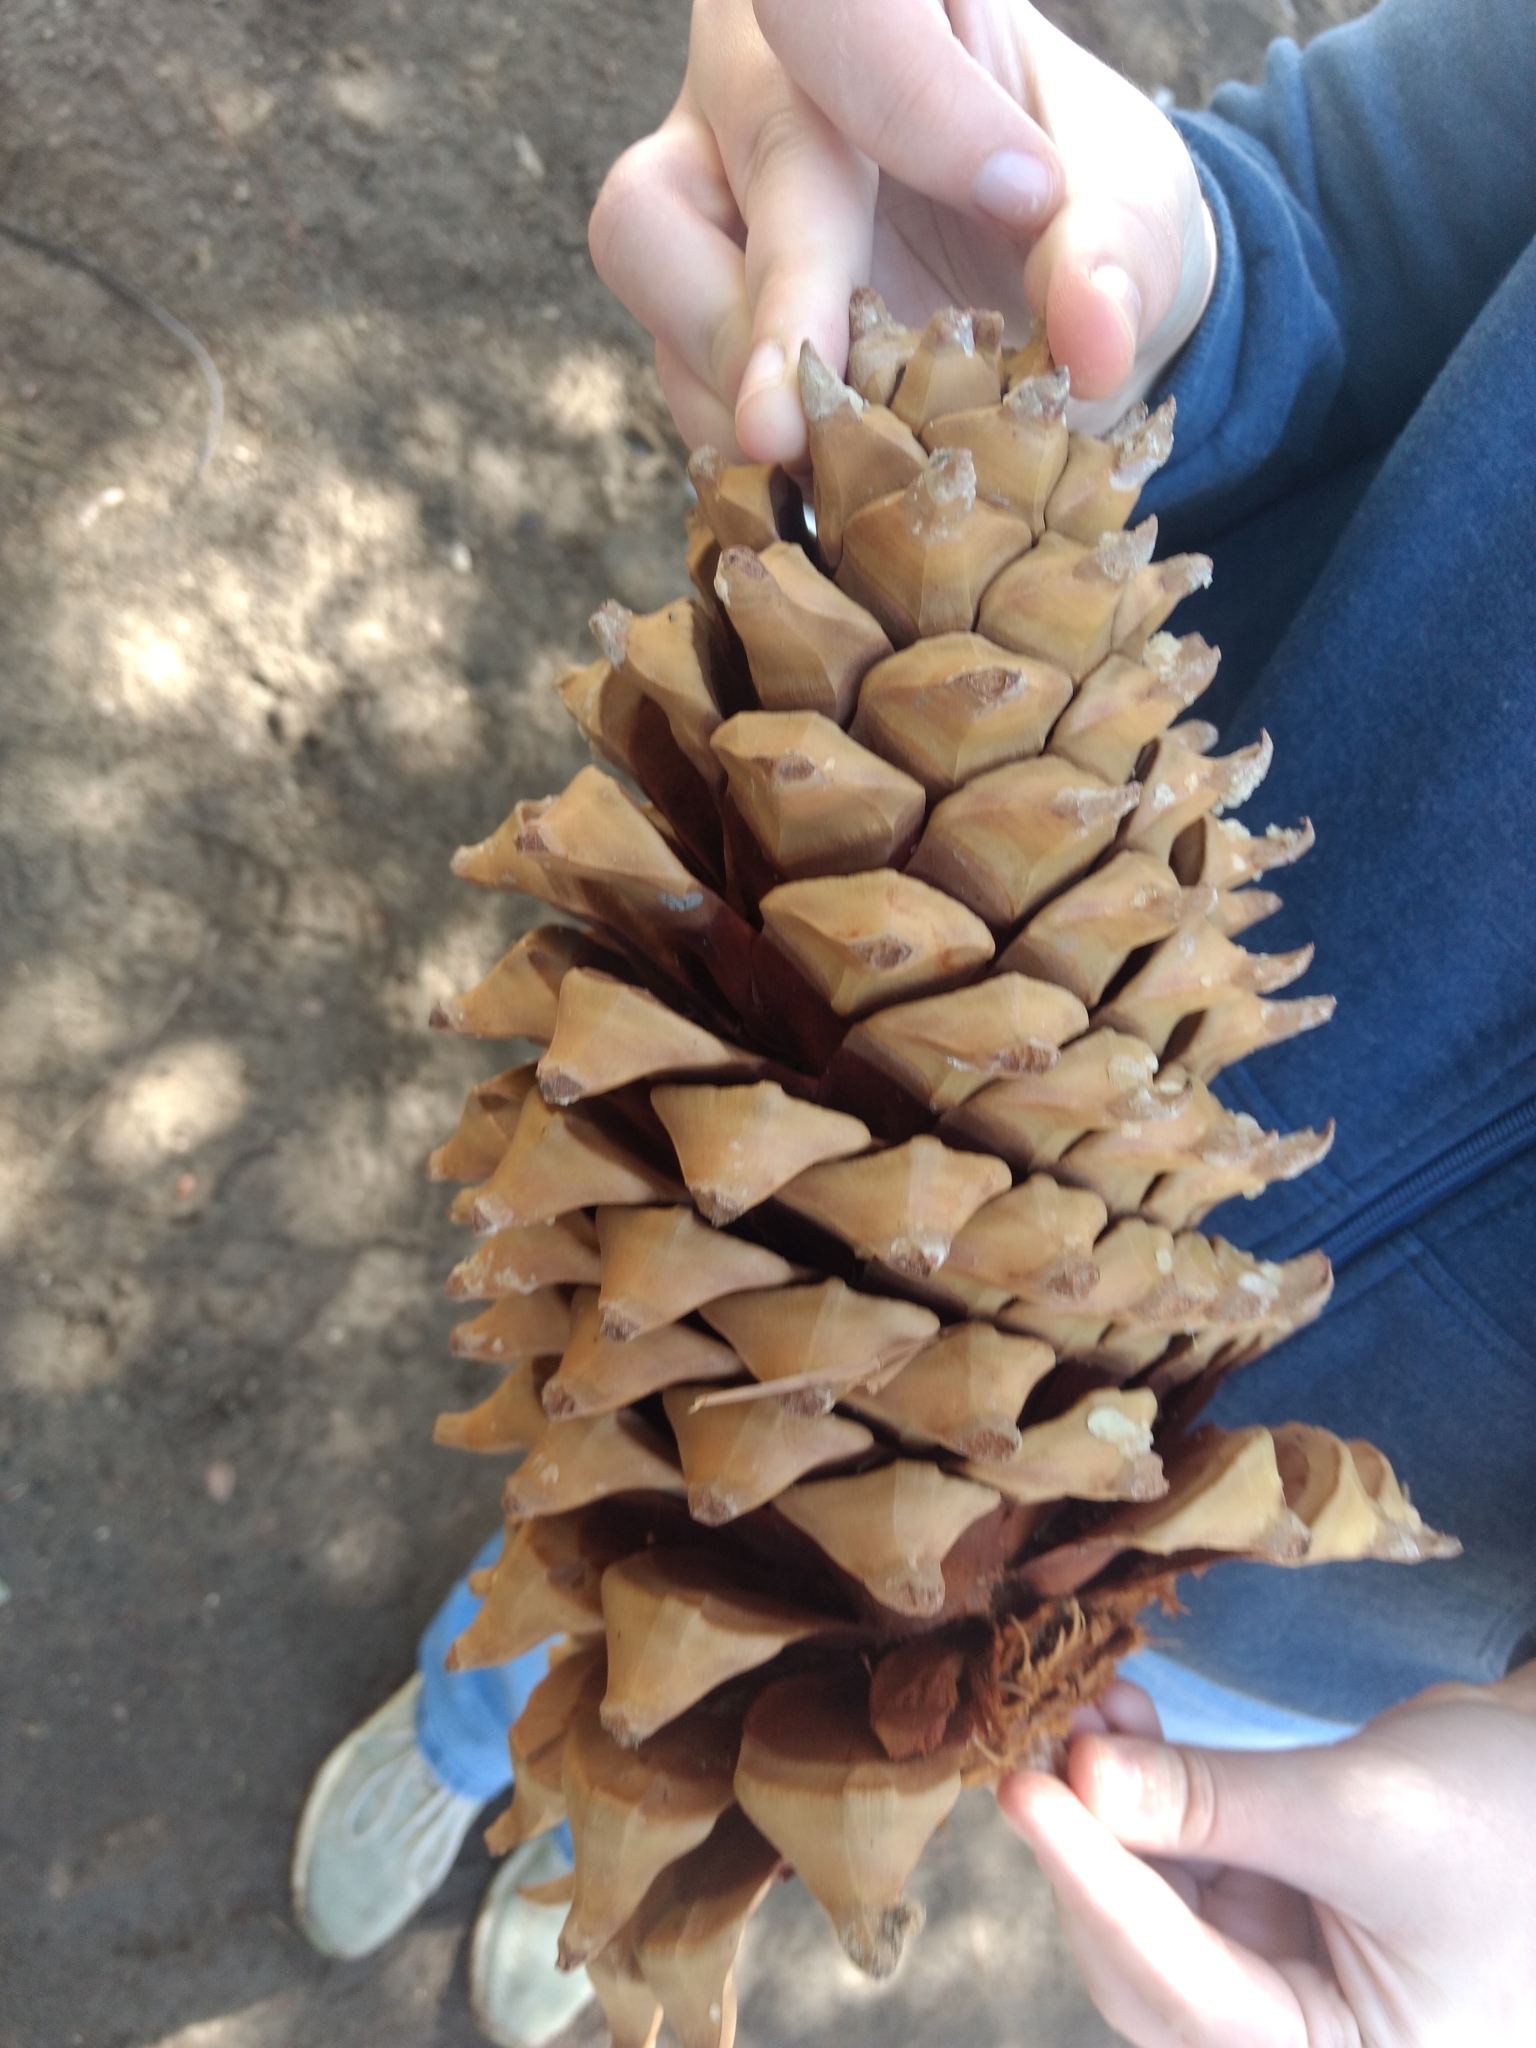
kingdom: Plantae
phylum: Tracheophyta
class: Pinopsida
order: Pinales
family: Pinaceae
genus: Pinus
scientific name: Pinus coulteri
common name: Coulter pine
